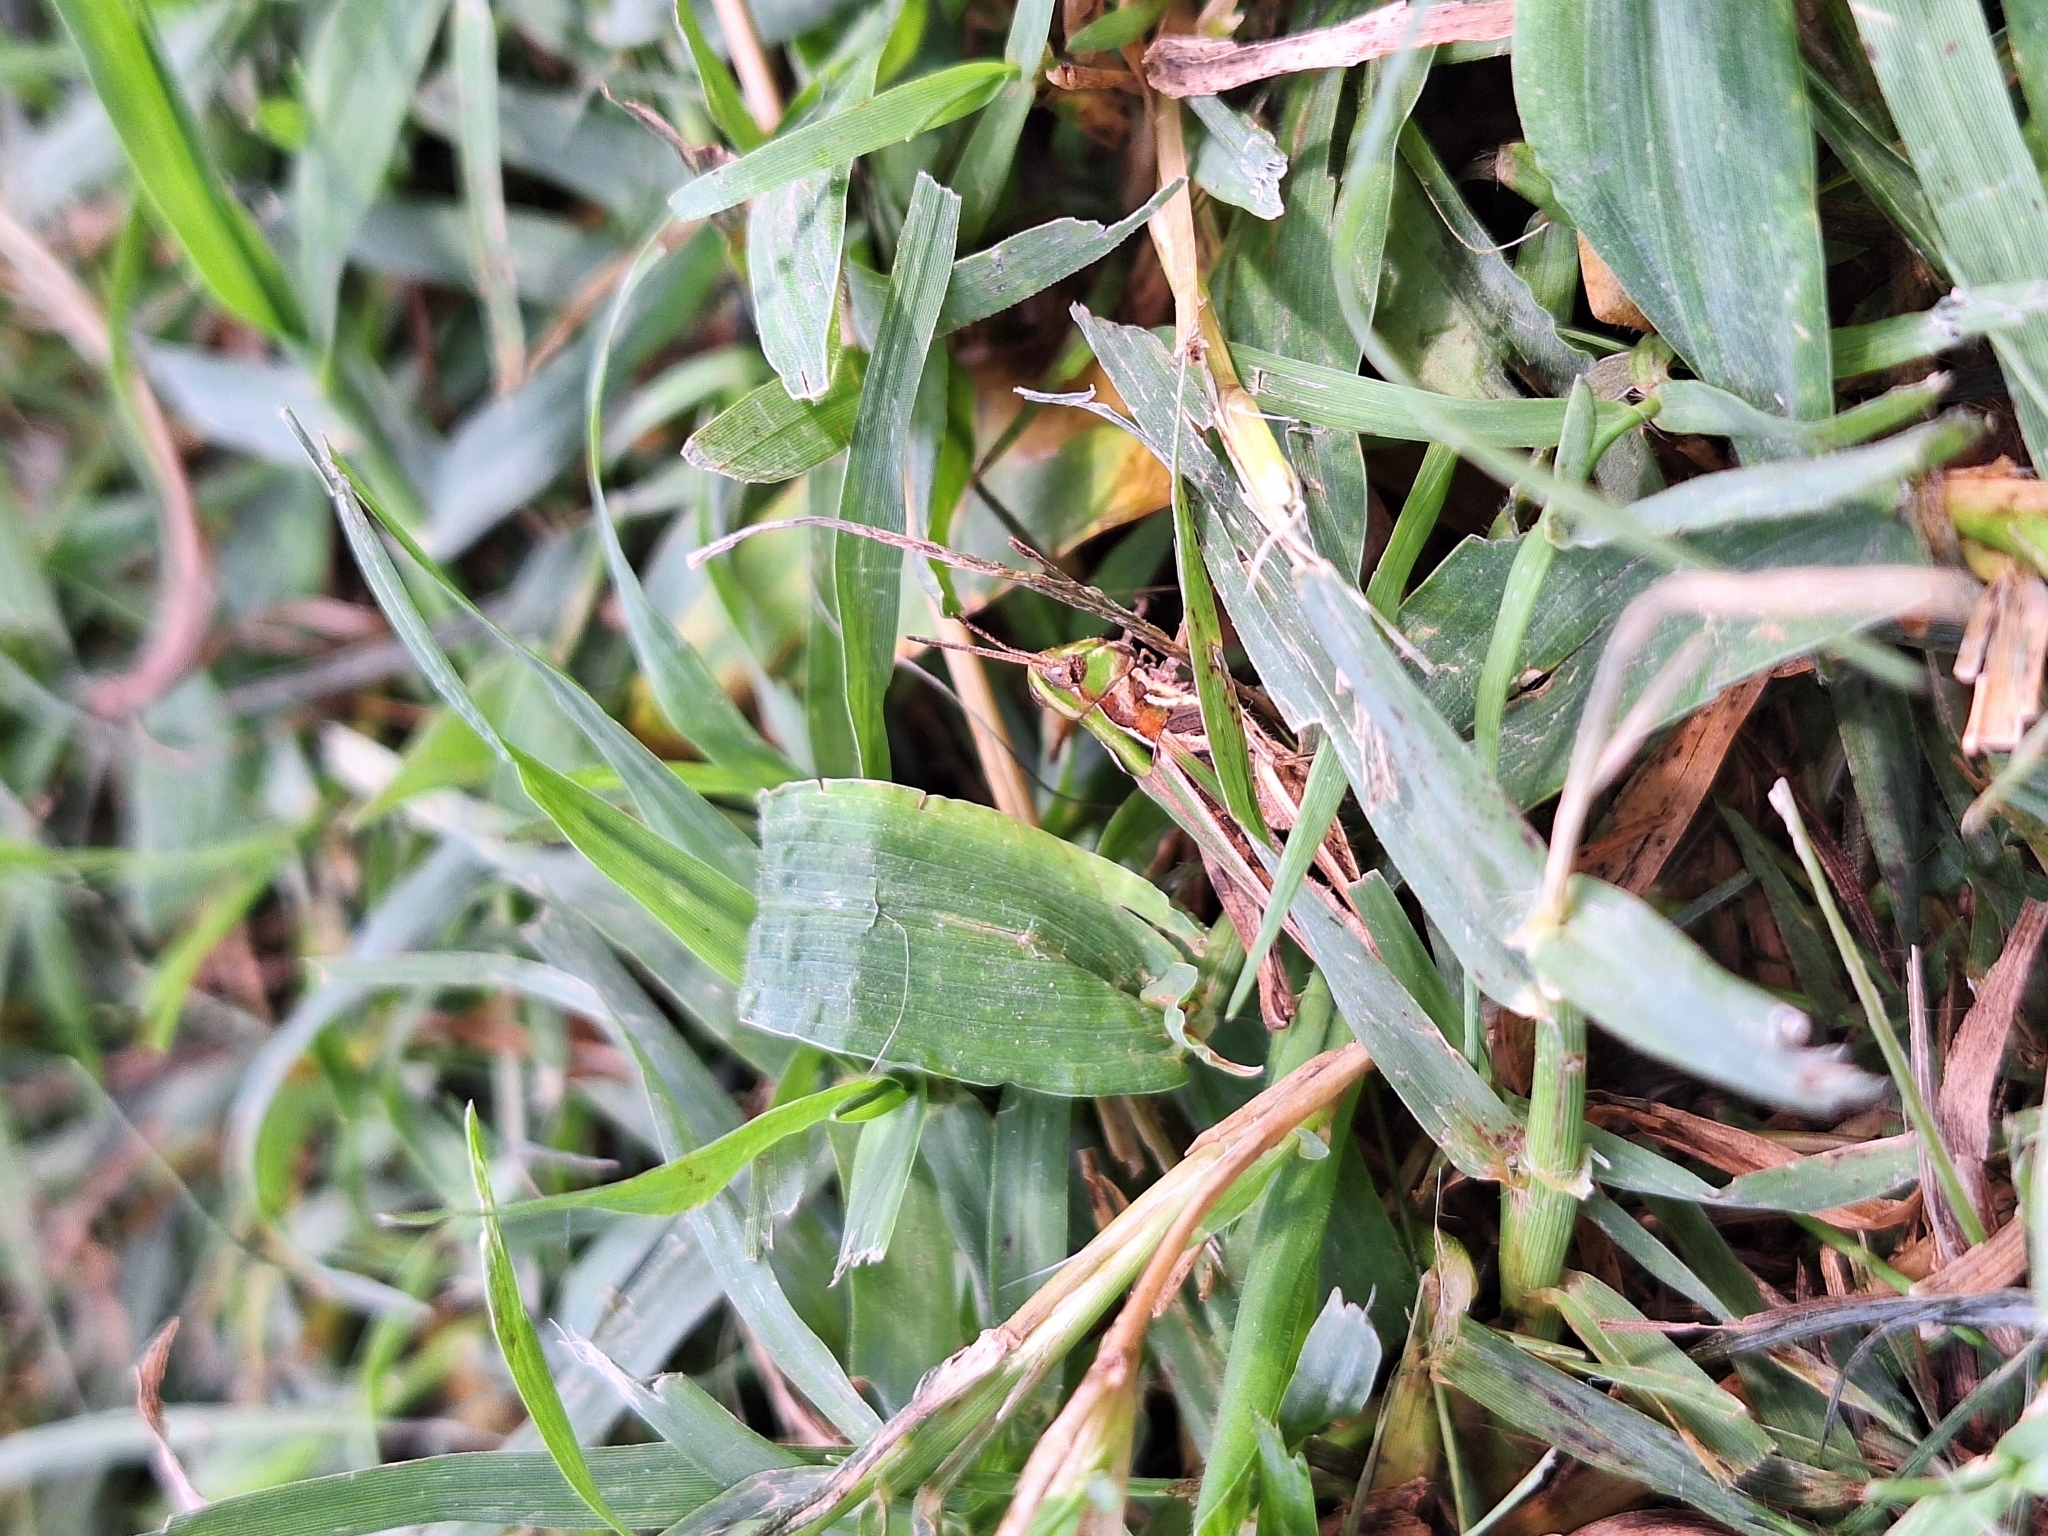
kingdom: Animalia
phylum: Arthropoda
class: Insecta
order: Orthoptera
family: Acrididae
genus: Orphulella
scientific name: Orphulella punctata
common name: Slant-faced grasshopper
